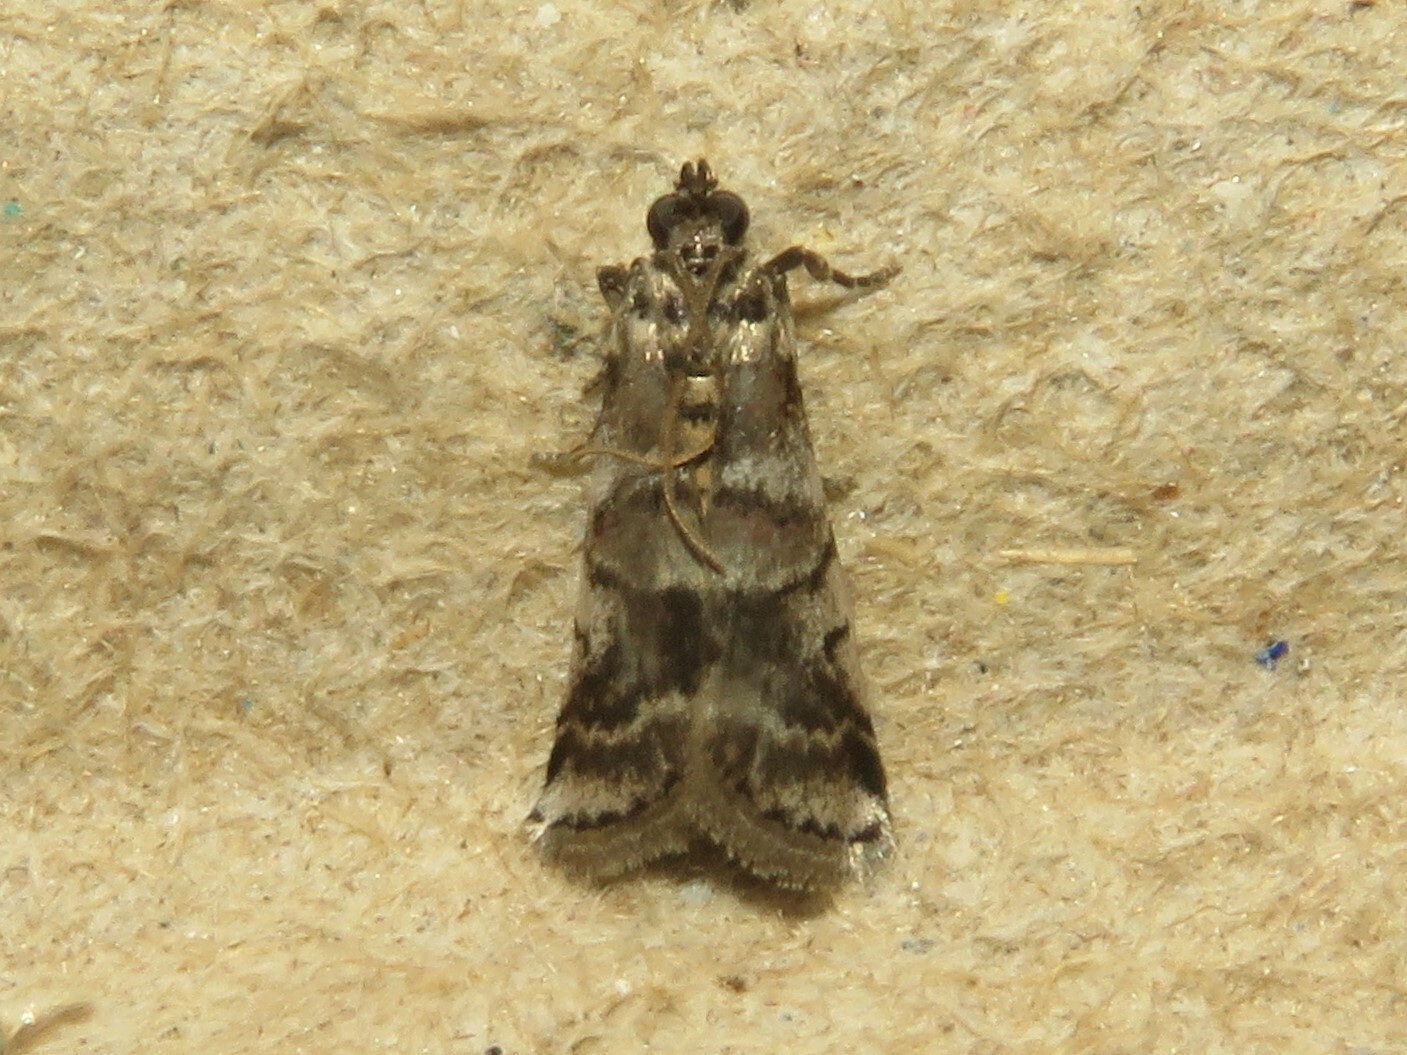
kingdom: Animalia
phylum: Arthropoda
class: Insecta
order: Lepidoptera
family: Pyralidae
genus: Acrobasis
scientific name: Acrobasis indigenella
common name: Leaf crumpler moth
